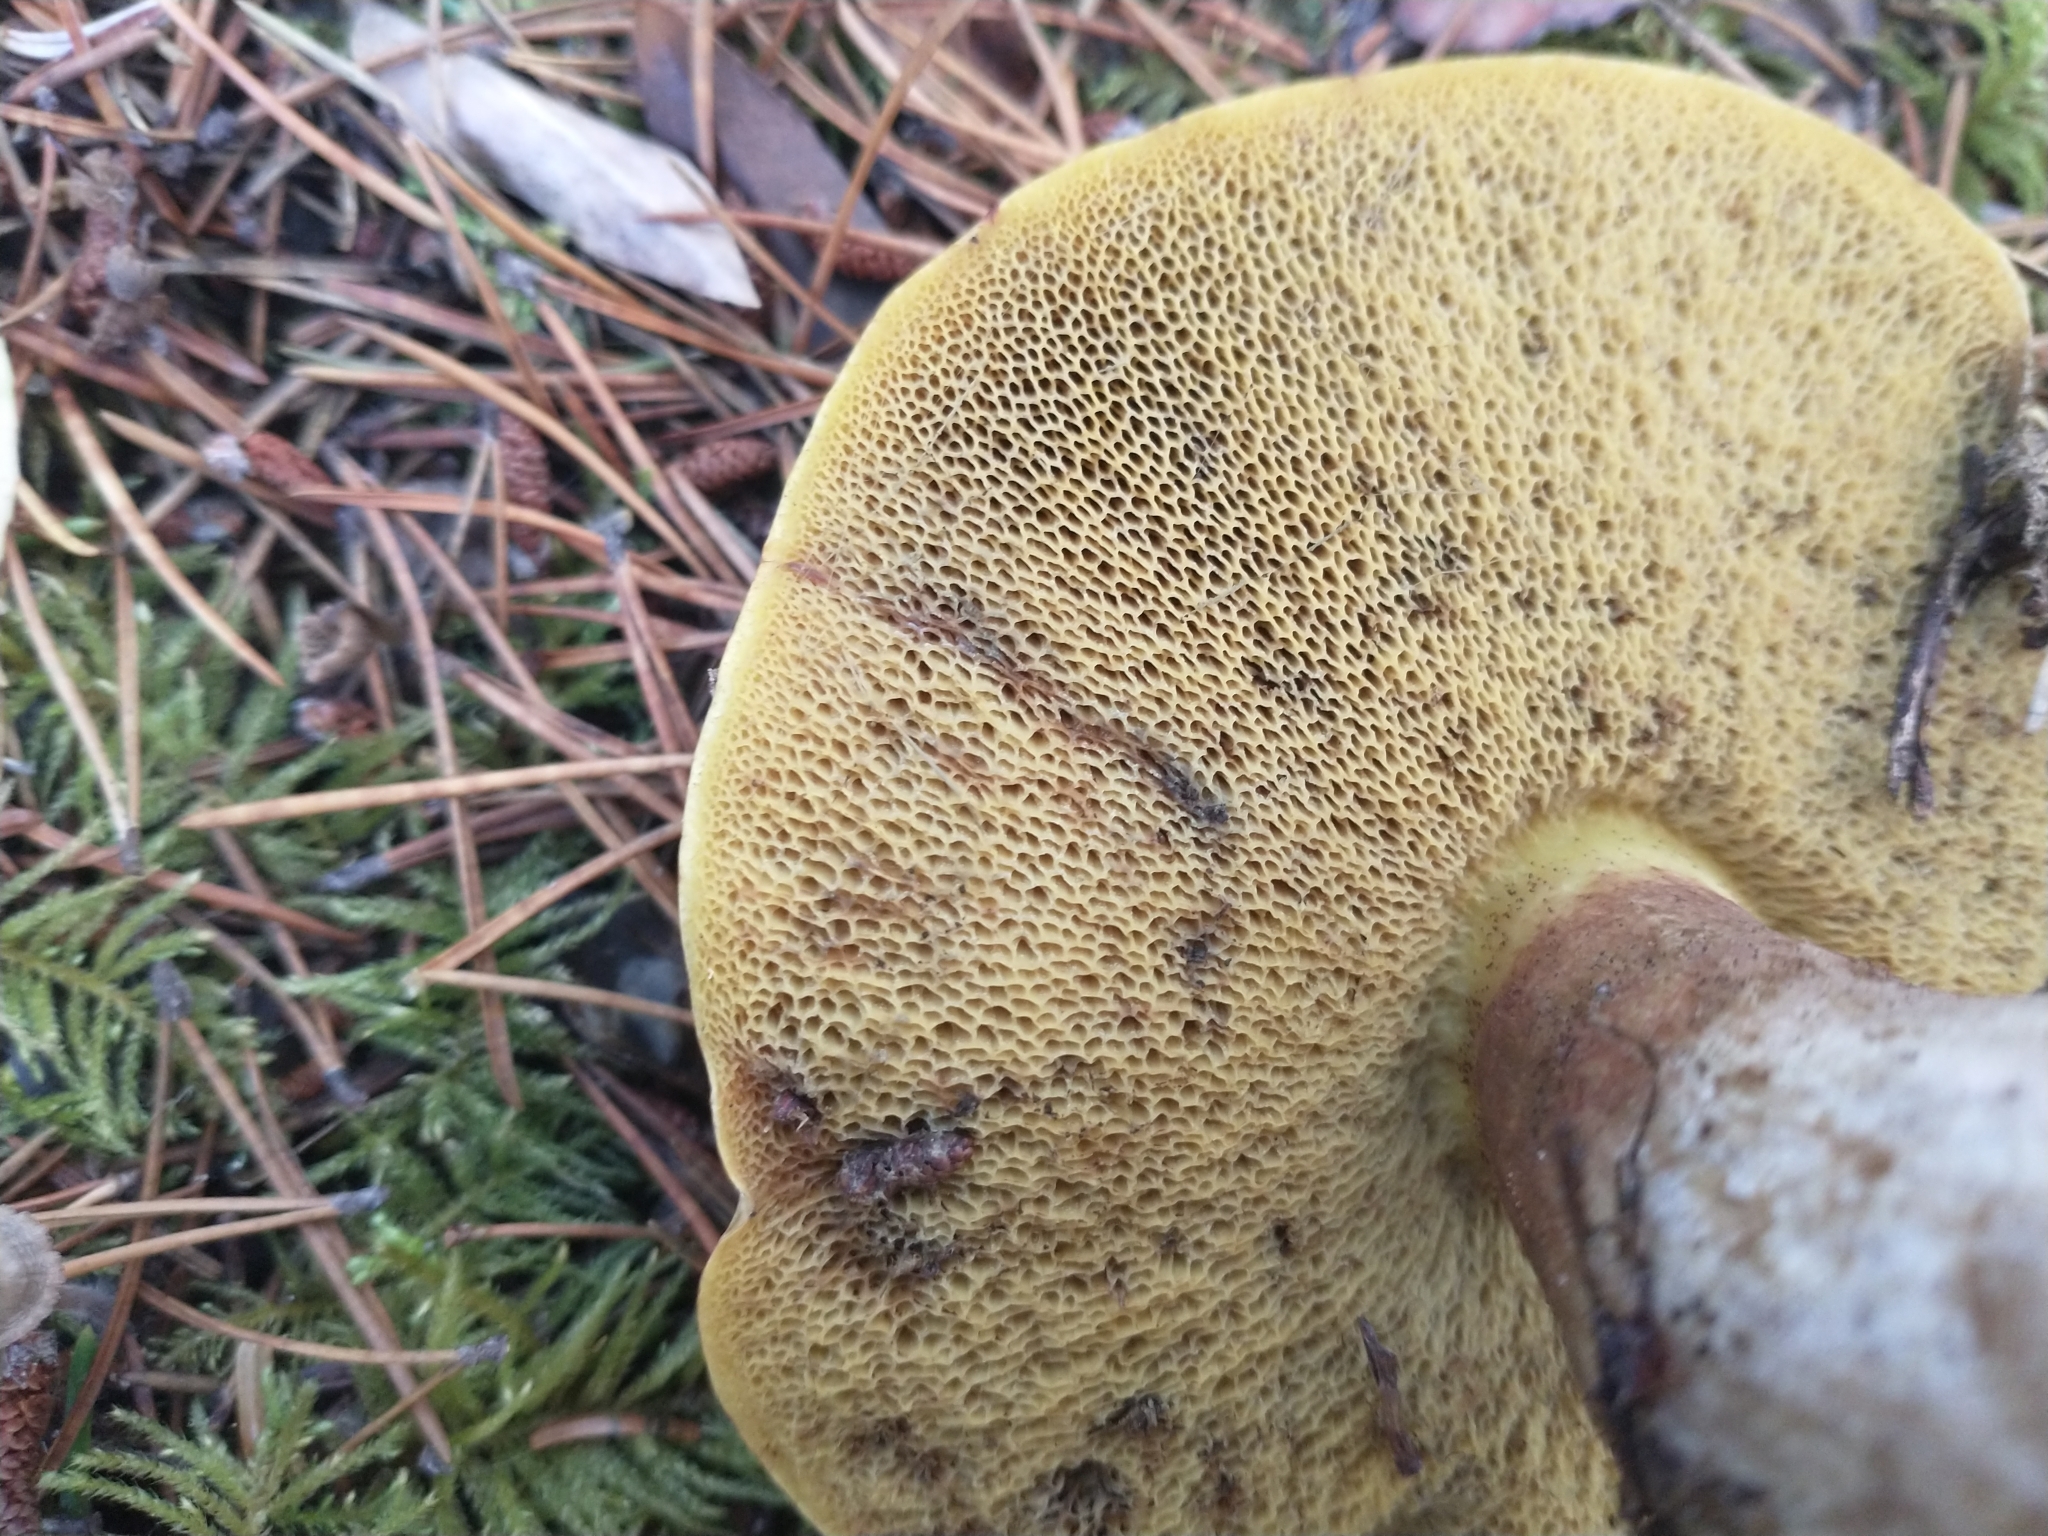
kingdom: Fungi
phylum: Basidiomycota
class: Agaricomycetes
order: Boletales
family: Suillaceae
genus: Suillus
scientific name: Suillus tomentosus
